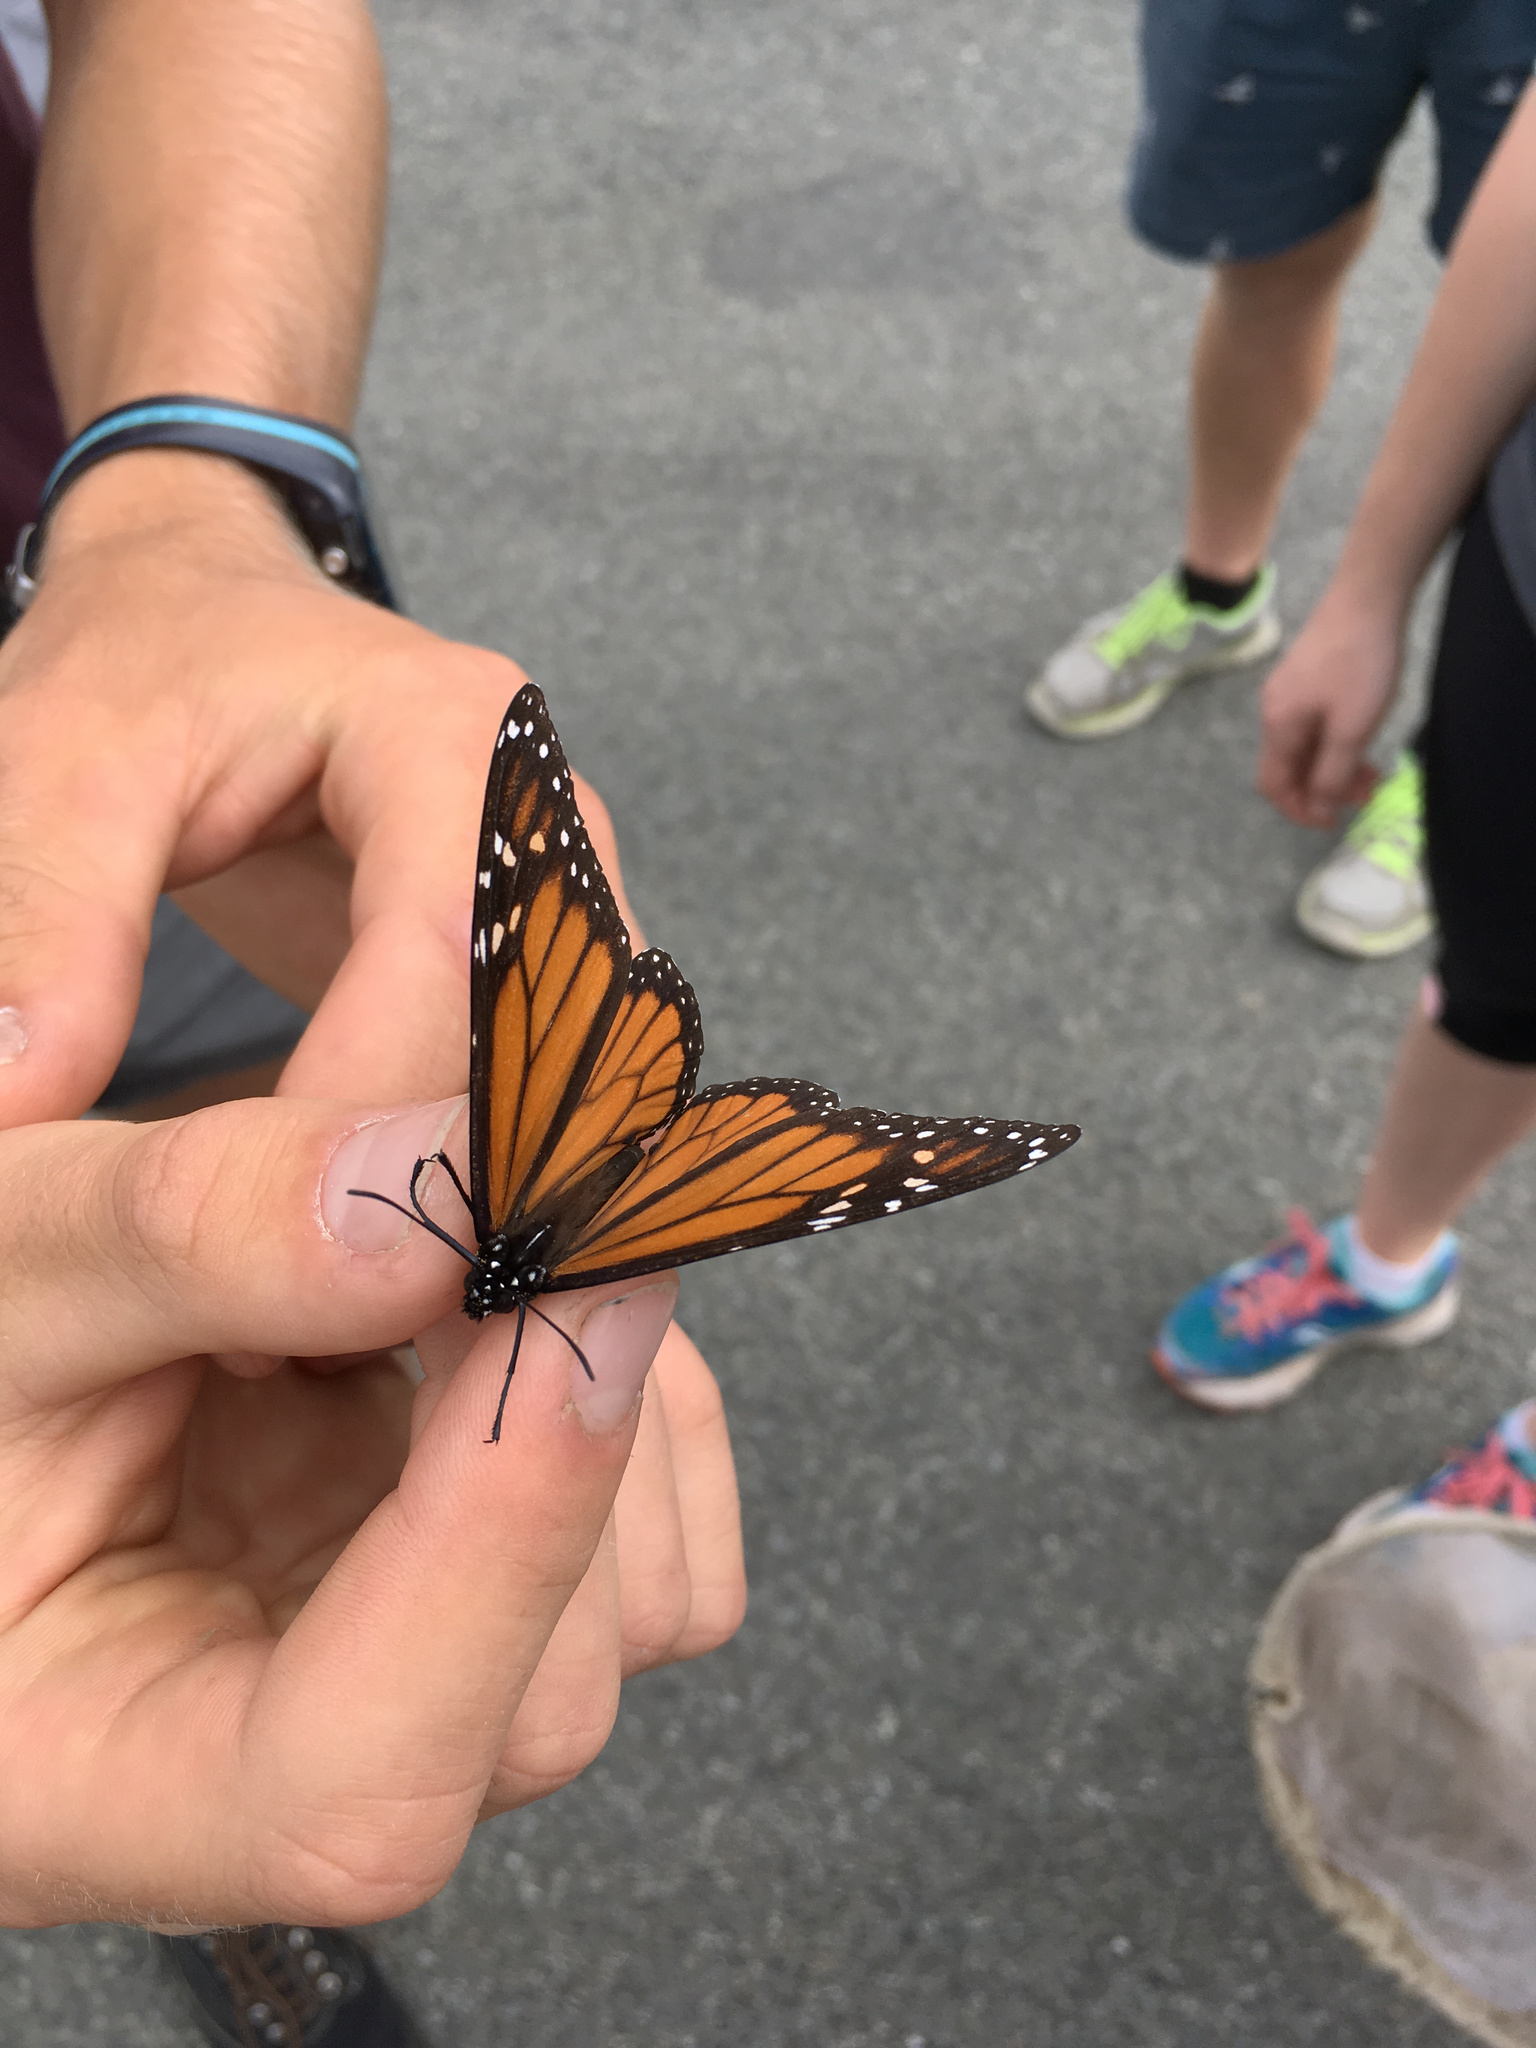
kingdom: Animalia
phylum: Arthropoda
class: Insecta
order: Lepidoptera
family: Nymphalidae
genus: Danaus
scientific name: Danaus plexippus
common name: Monarch
